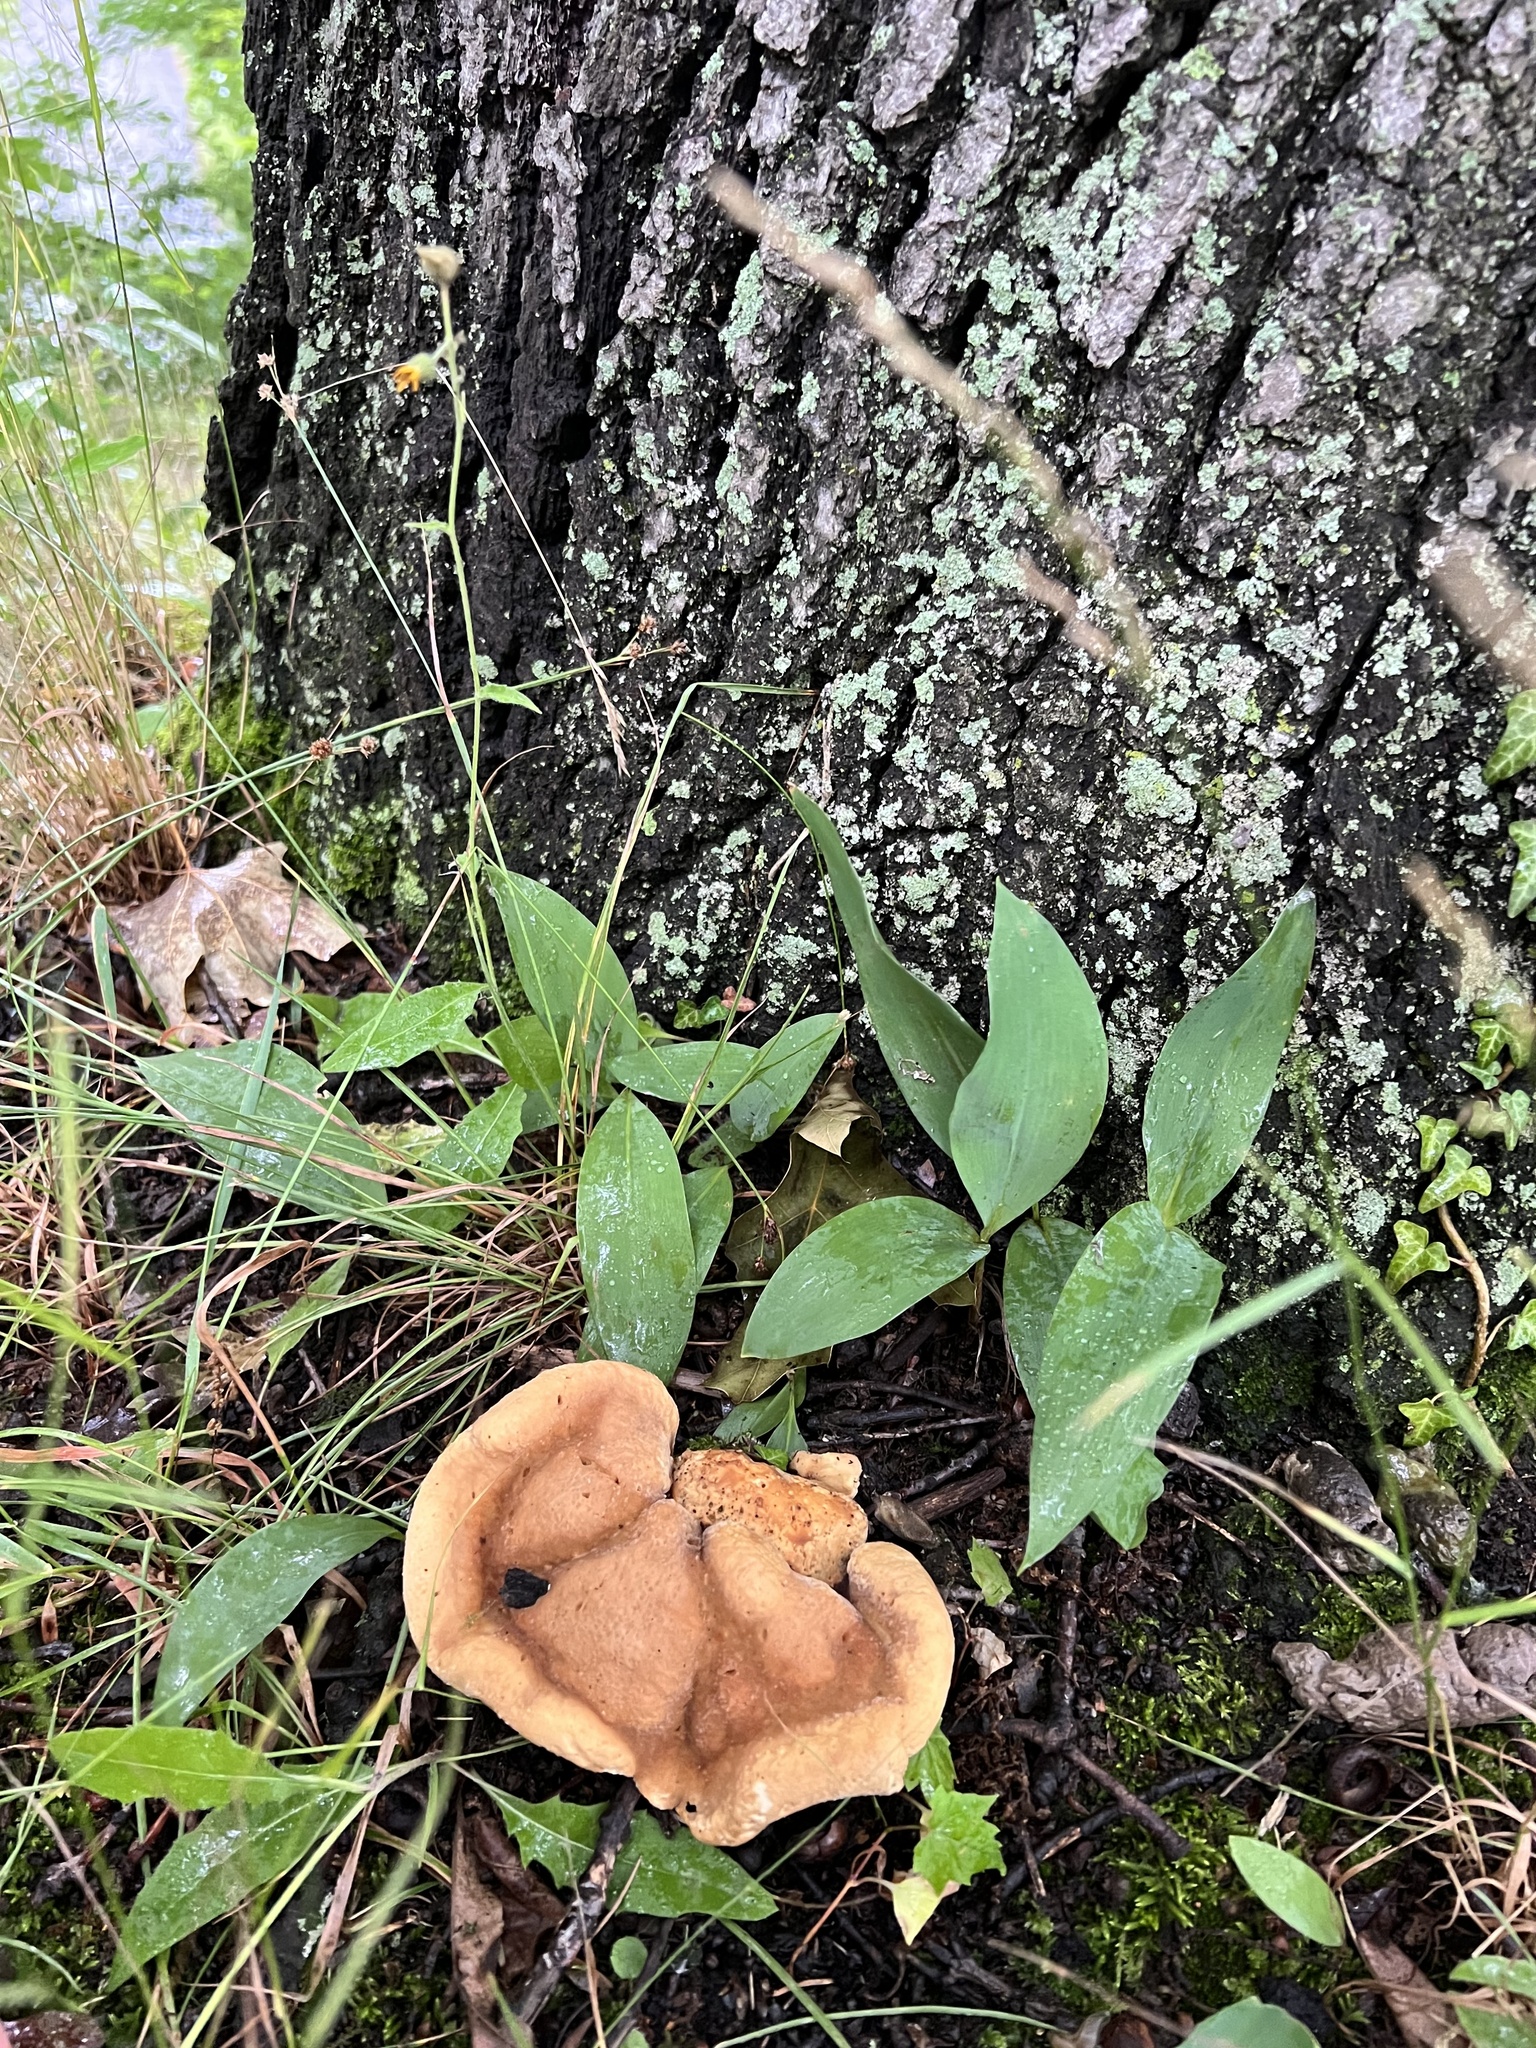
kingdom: Fungi
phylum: Basidiomycota
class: Agaricomycetes
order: Russulales
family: Bondarzewiaceae
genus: Bondarzewia
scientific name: Bondarzewia berkeleyi
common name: Berkeley's polypore
